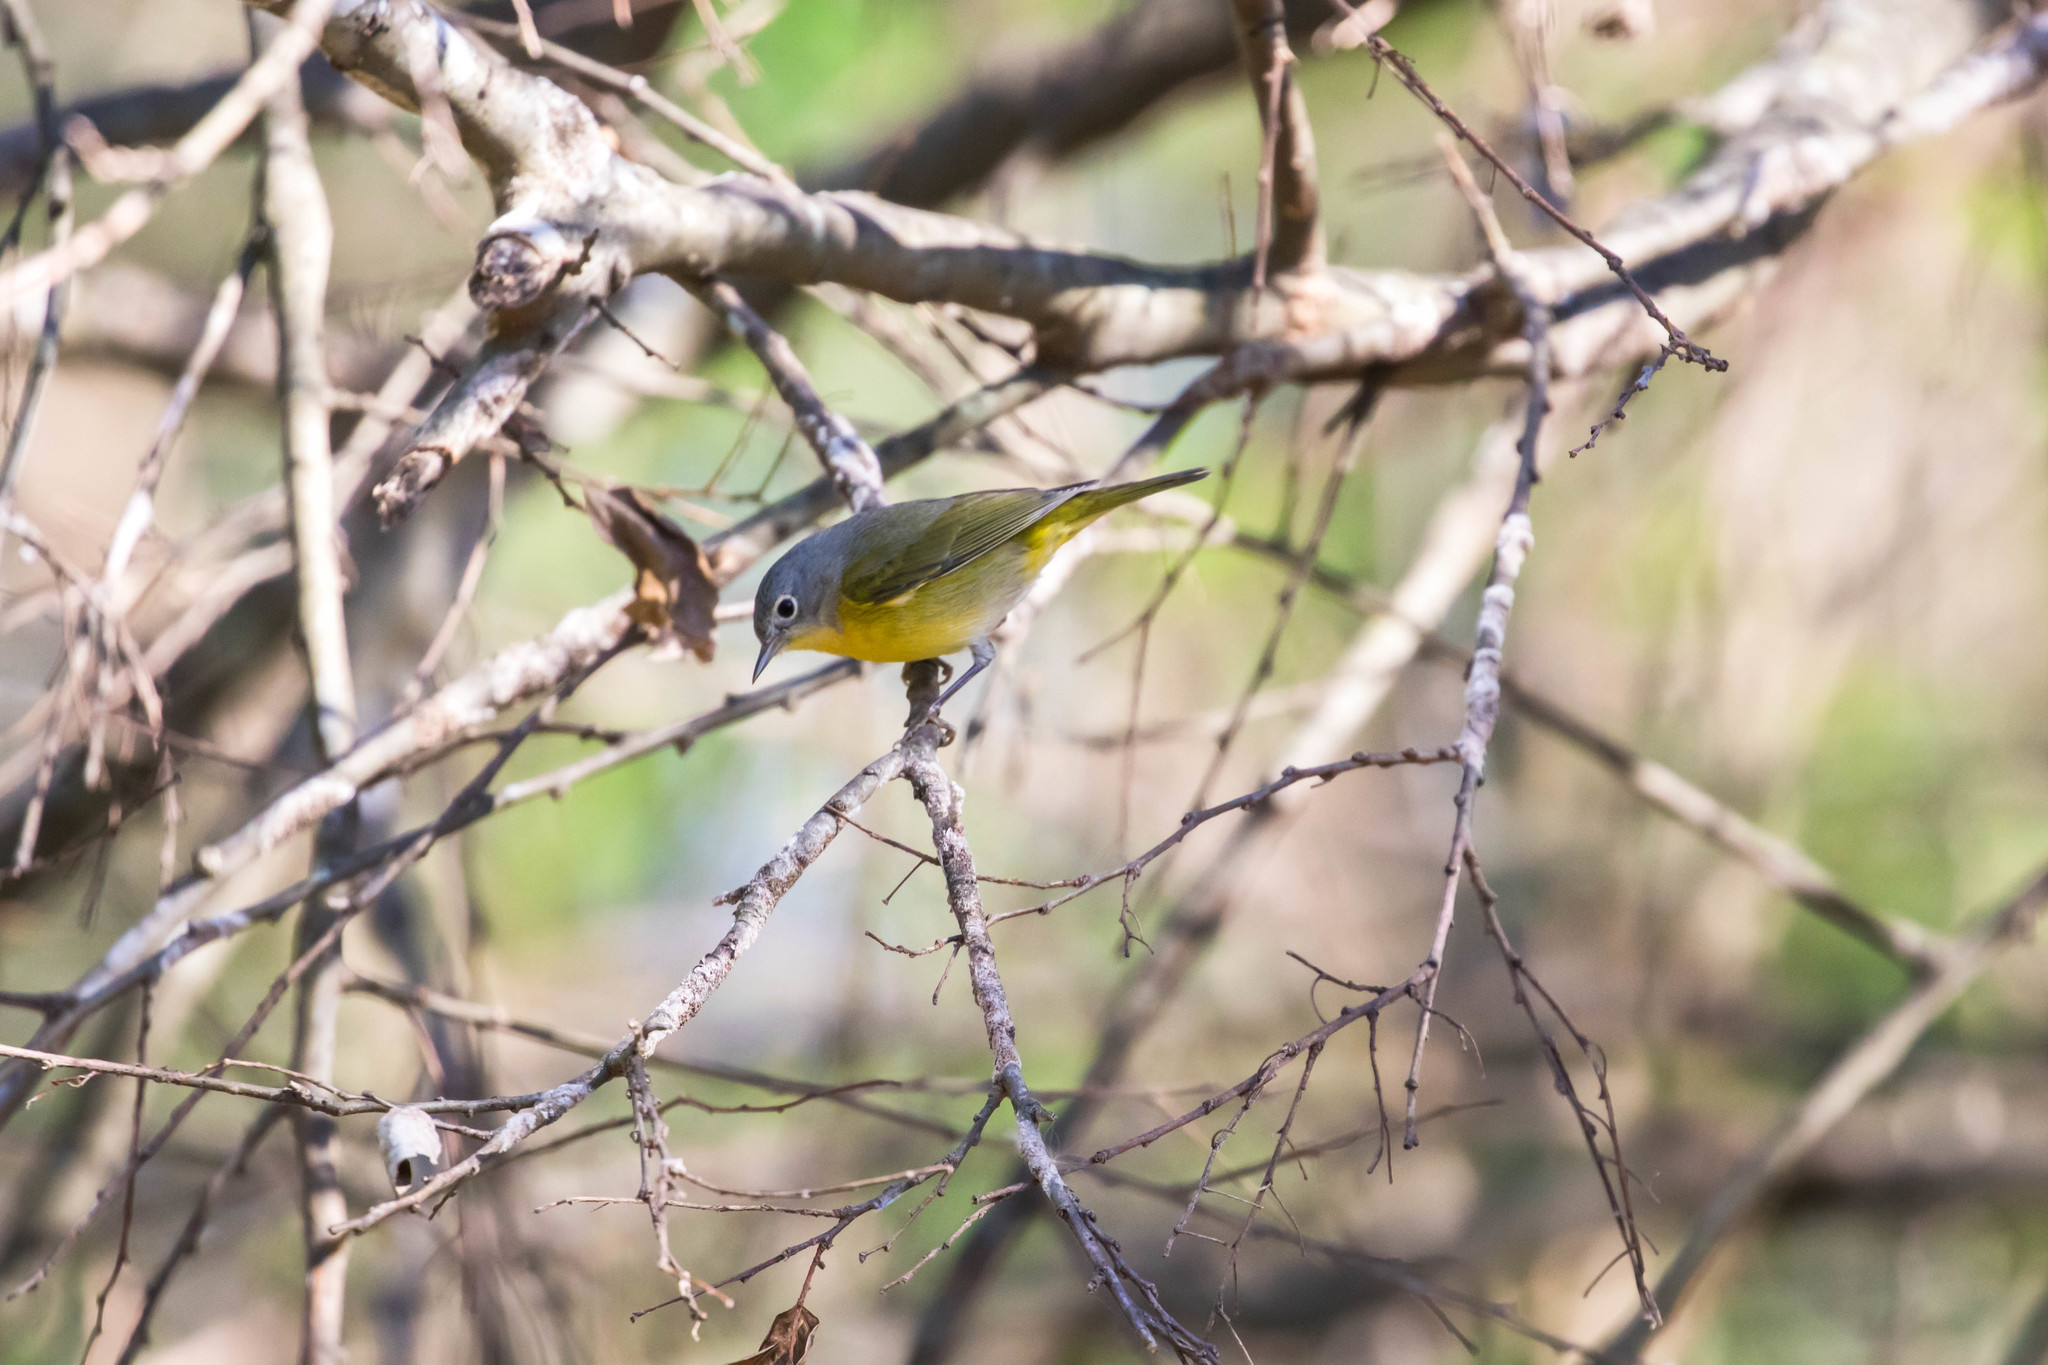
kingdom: Animalia
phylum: Chordata
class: Aves
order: Passeriformes
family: Parulidae
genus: Leiothlypis
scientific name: Leiothlypis ruficapilla
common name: Nashville warbler
